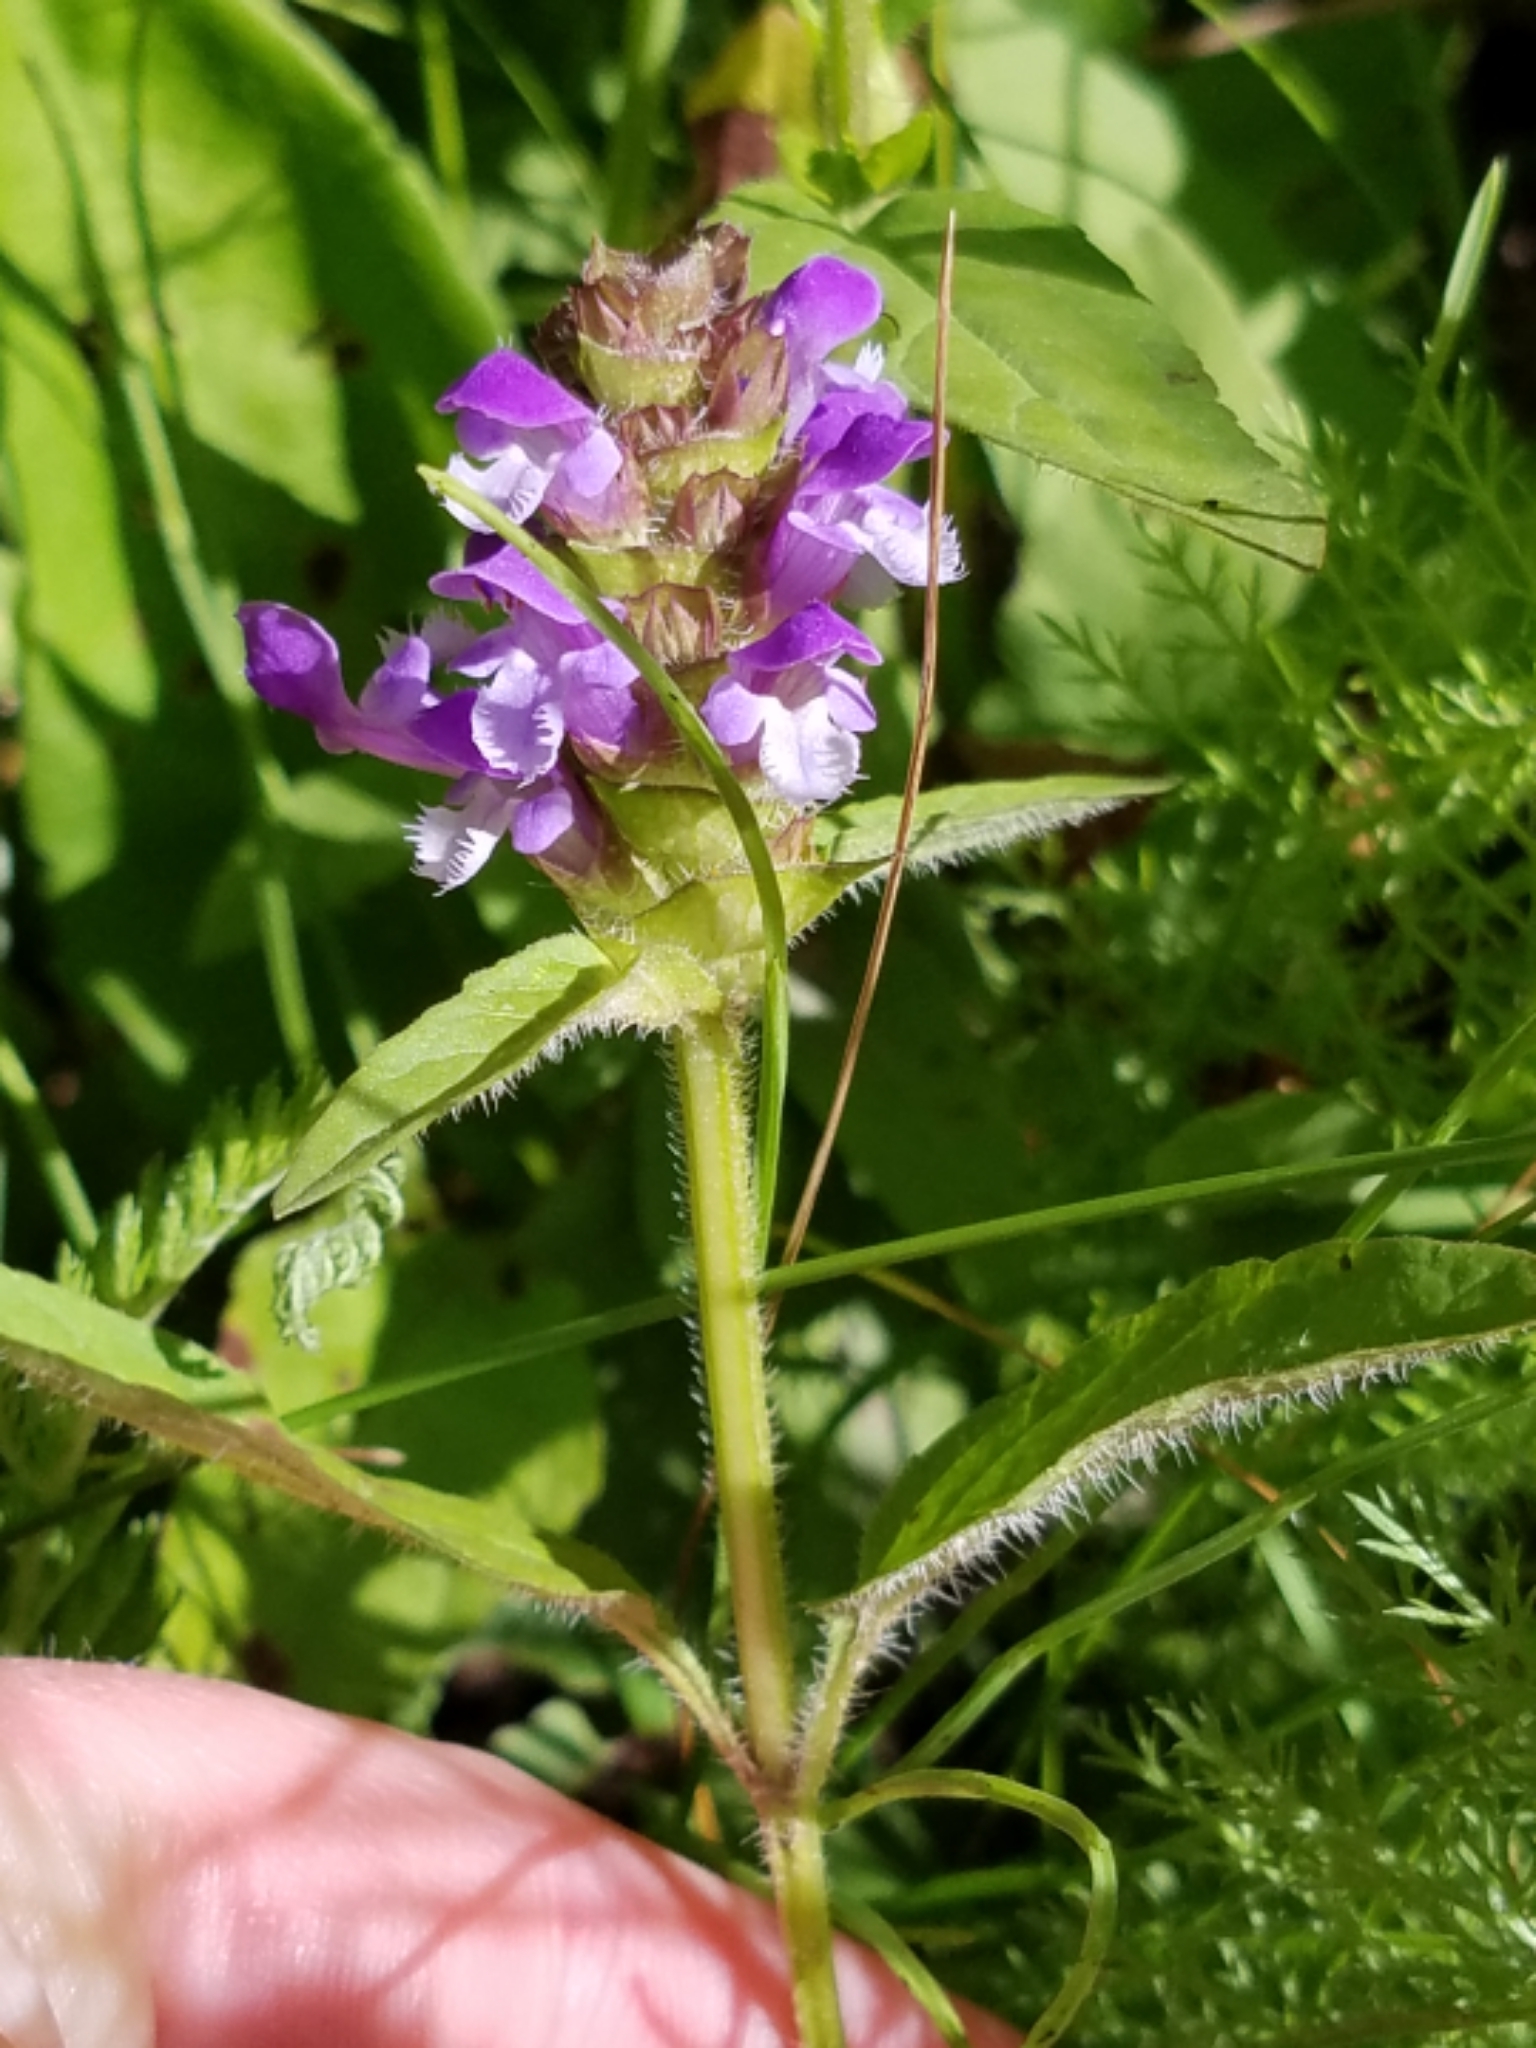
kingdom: Plantae
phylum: Tracheophyta
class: Magnoliopsida
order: Lamiales
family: Lamiaceae
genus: Prunella
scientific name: Prunella vulgaris
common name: Heal-all
